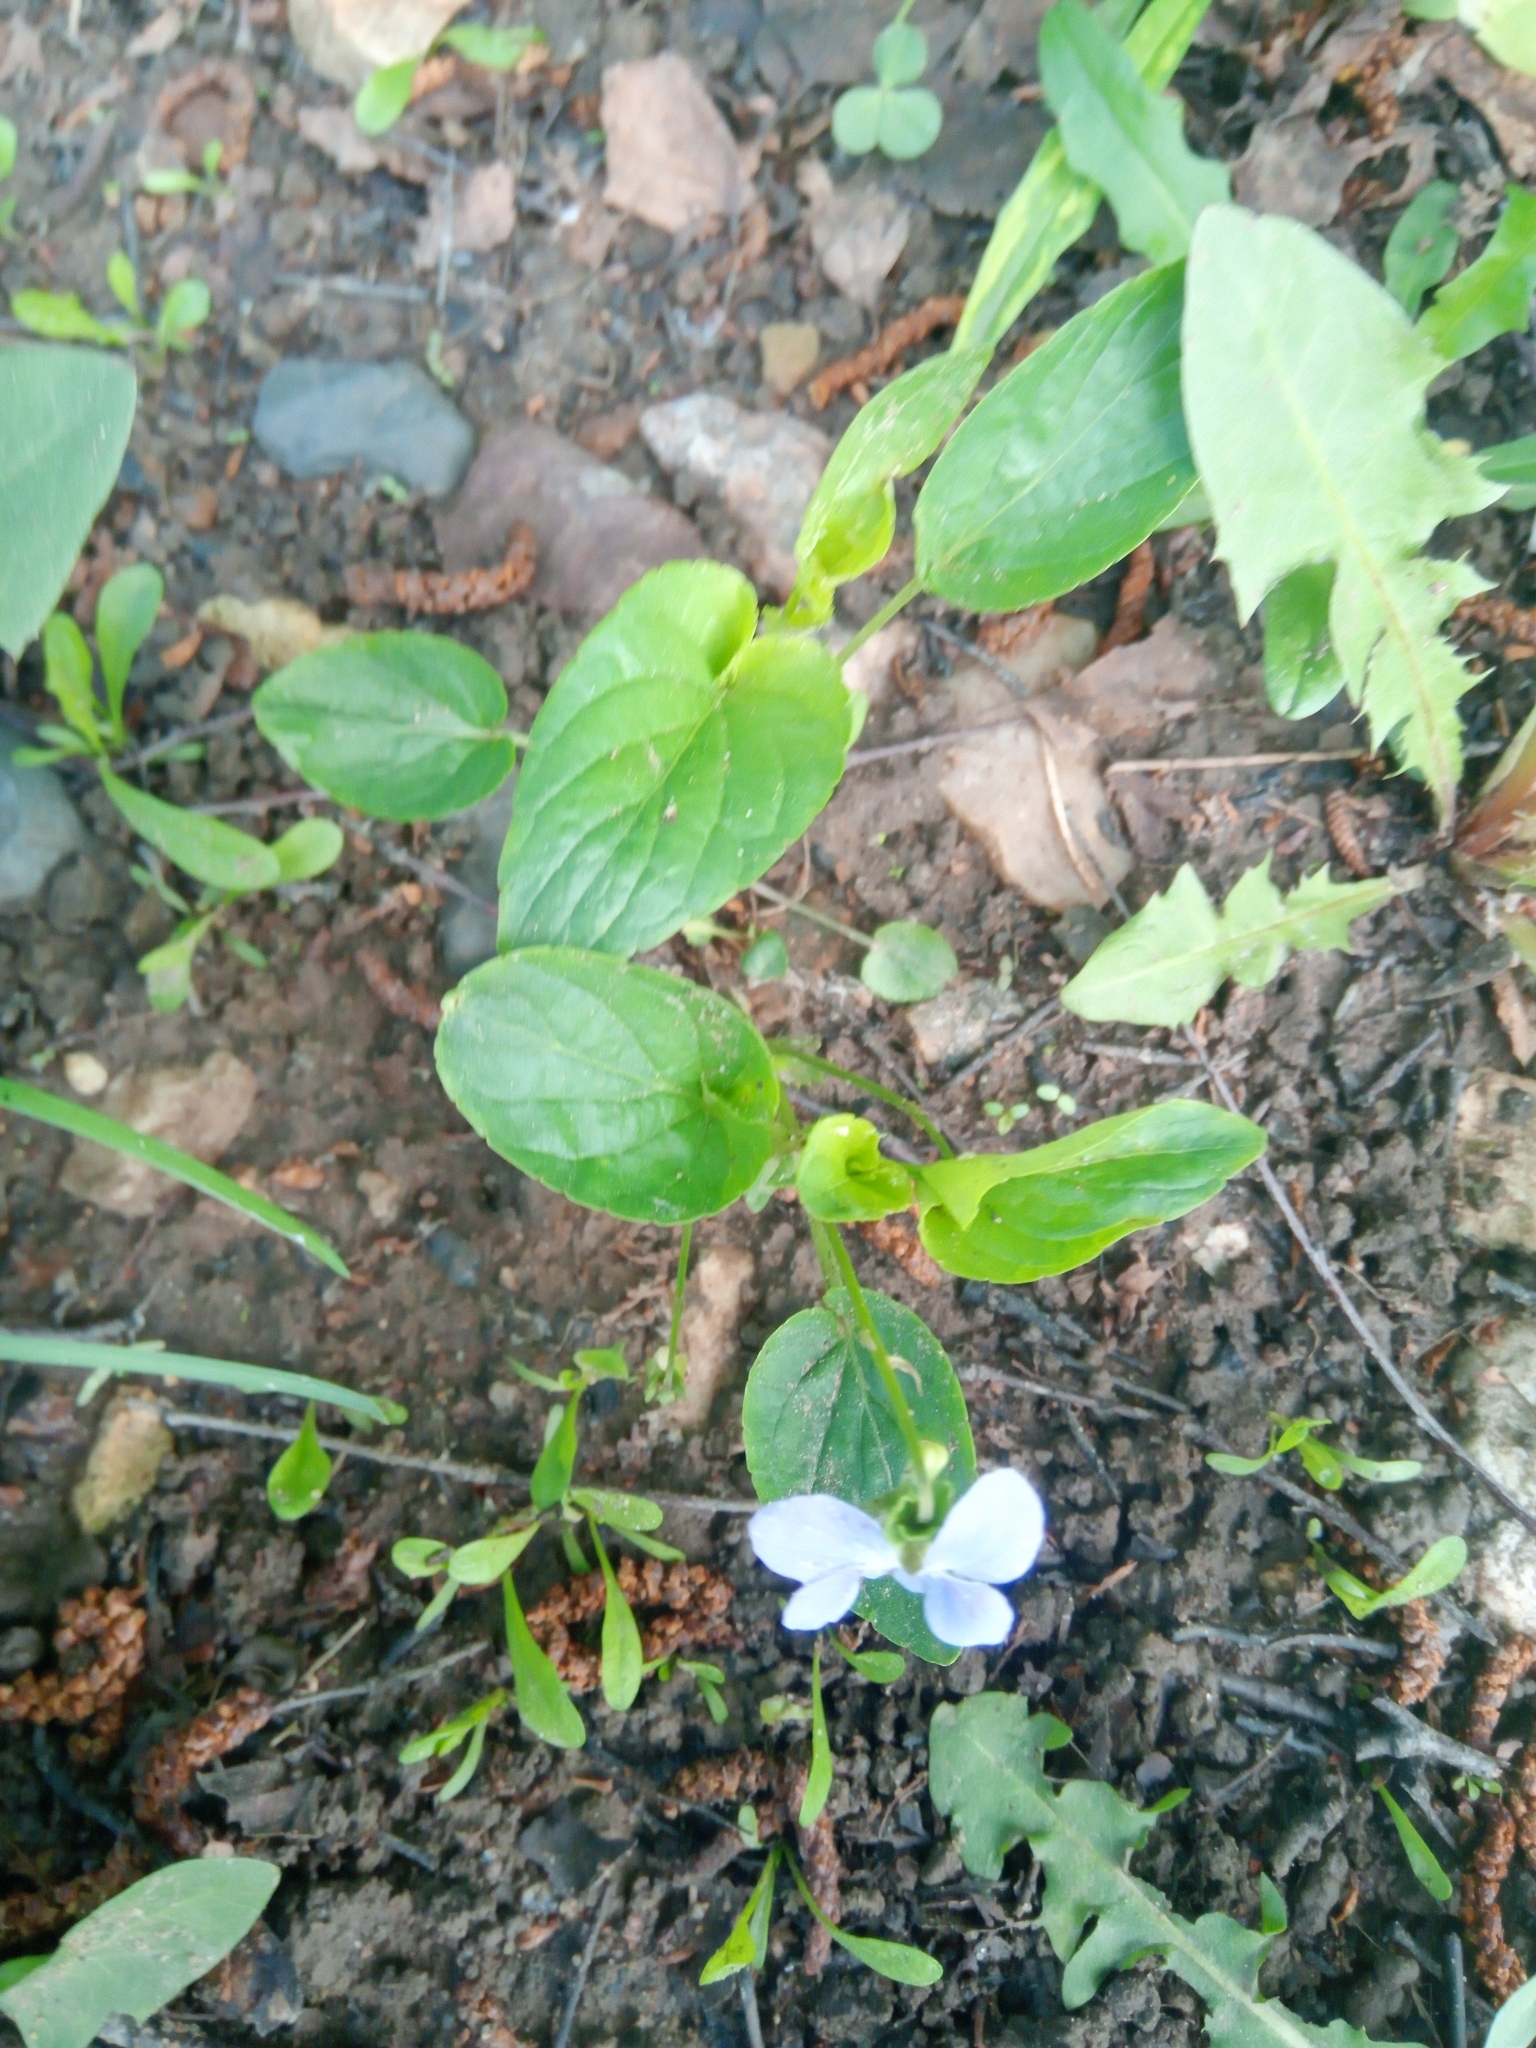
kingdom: Plantae
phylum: Tracheophyta
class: Magnoliopsida
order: Malpighiales
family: Violaceae
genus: Viola
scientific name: Viola canina
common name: Heath dog-violet
